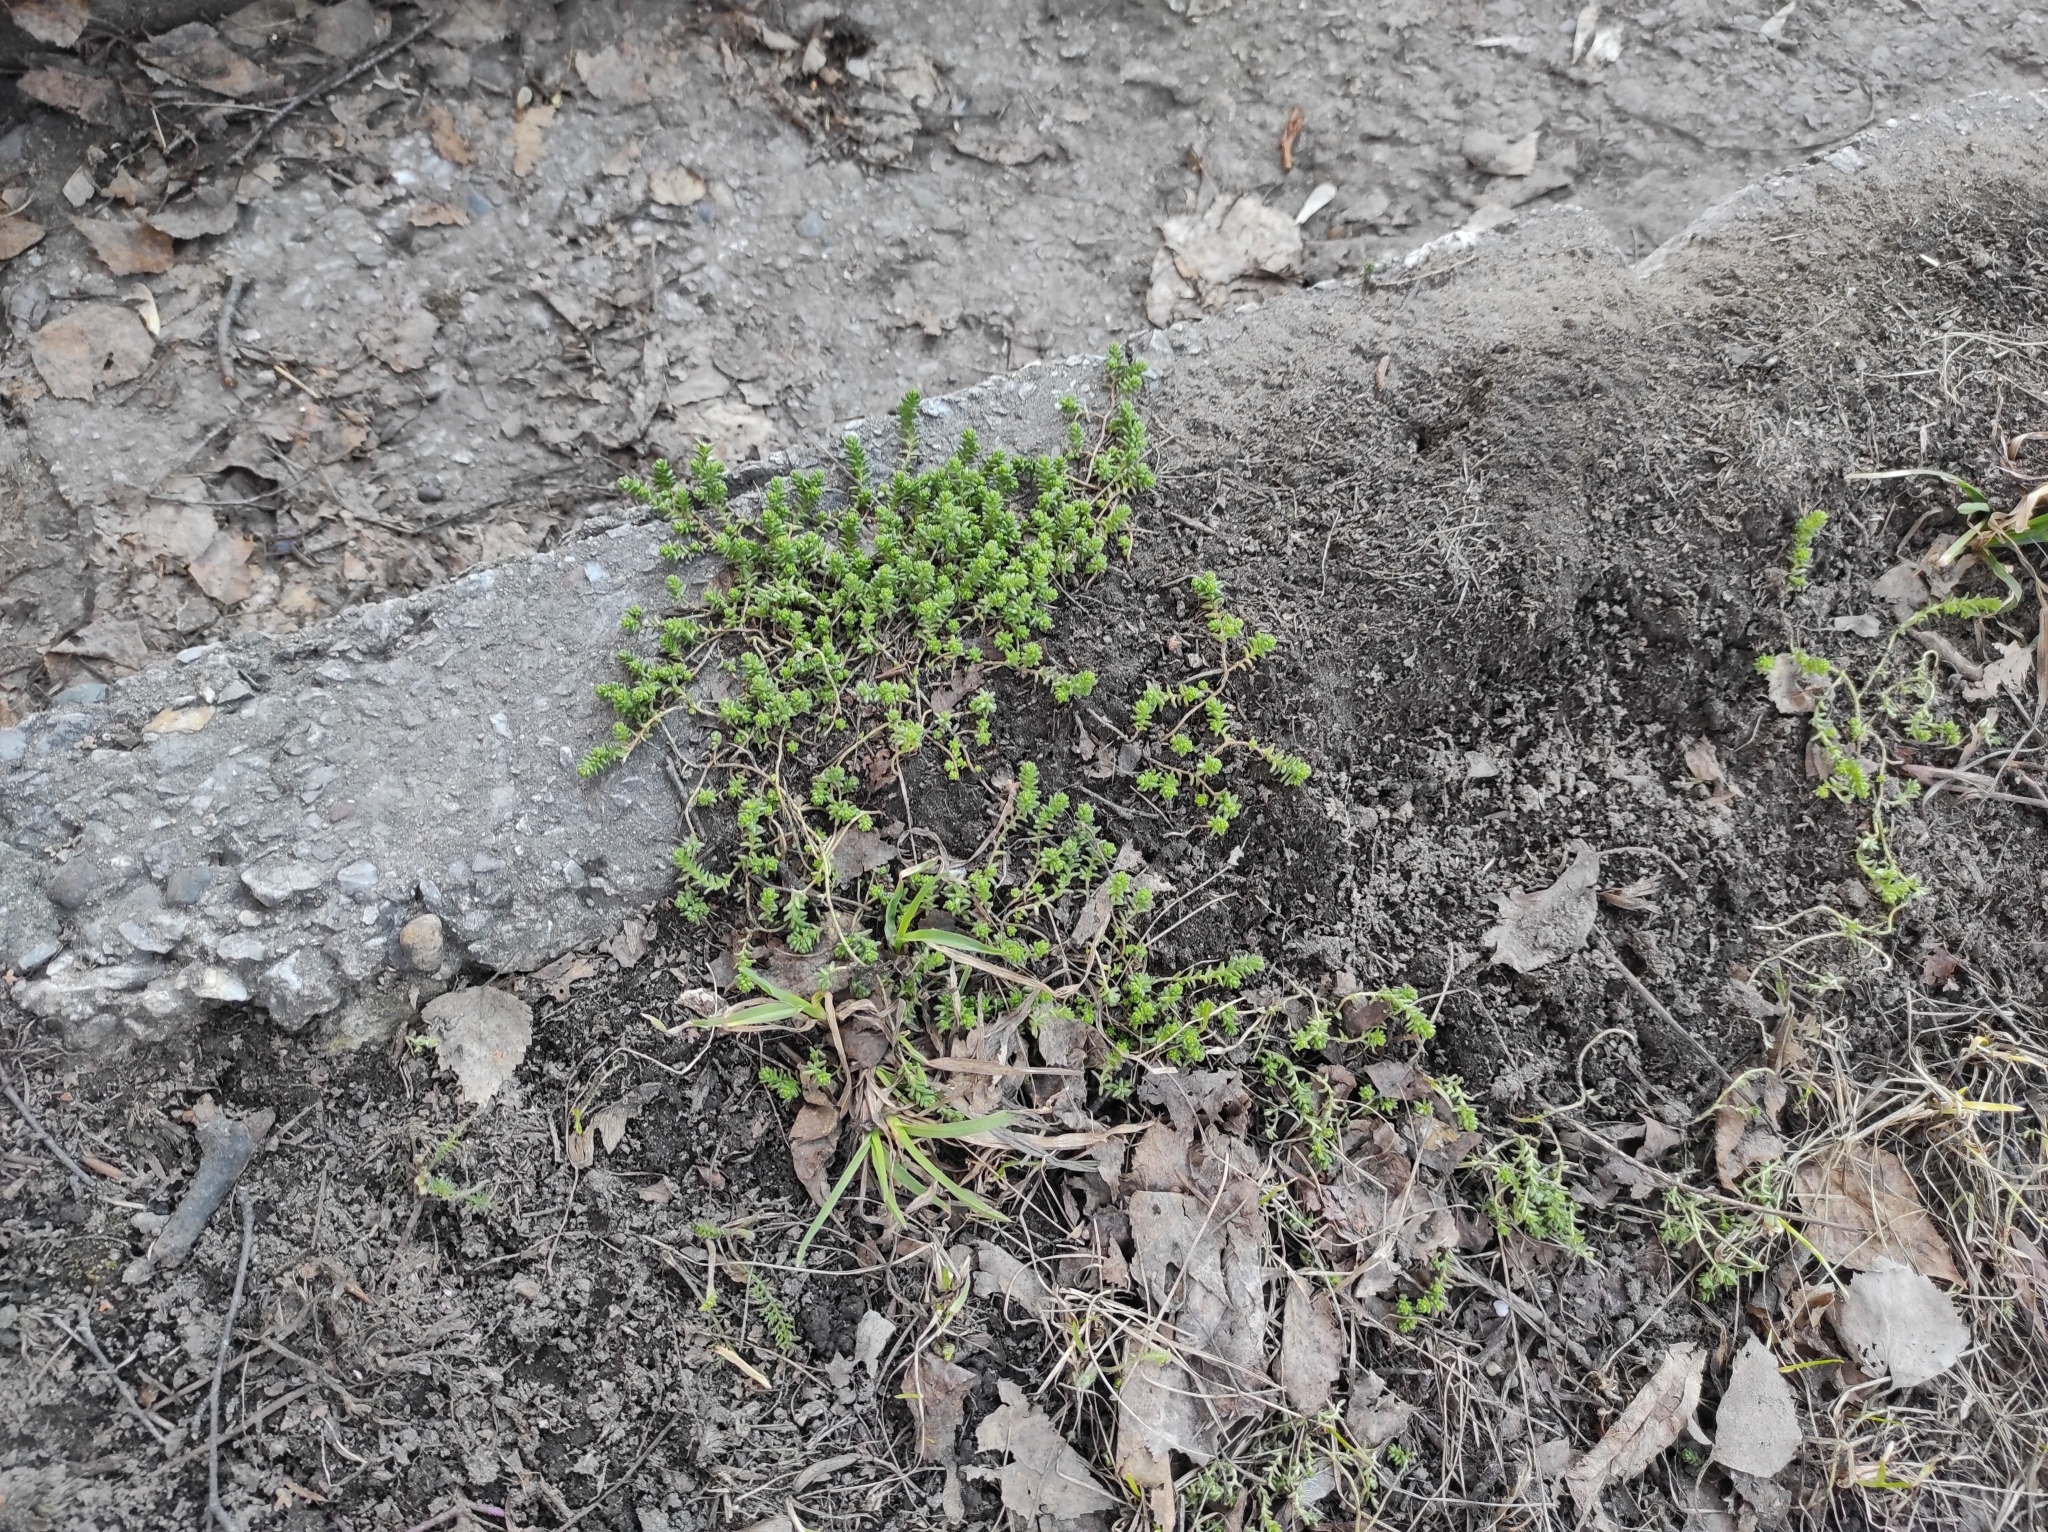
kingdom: Plantae
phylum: Tracheophyta
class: Magnoliopsida
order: Saxifragales
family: Crassulaceae
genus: Sedum
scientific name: Sedum acre
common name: Biting stonecrop
